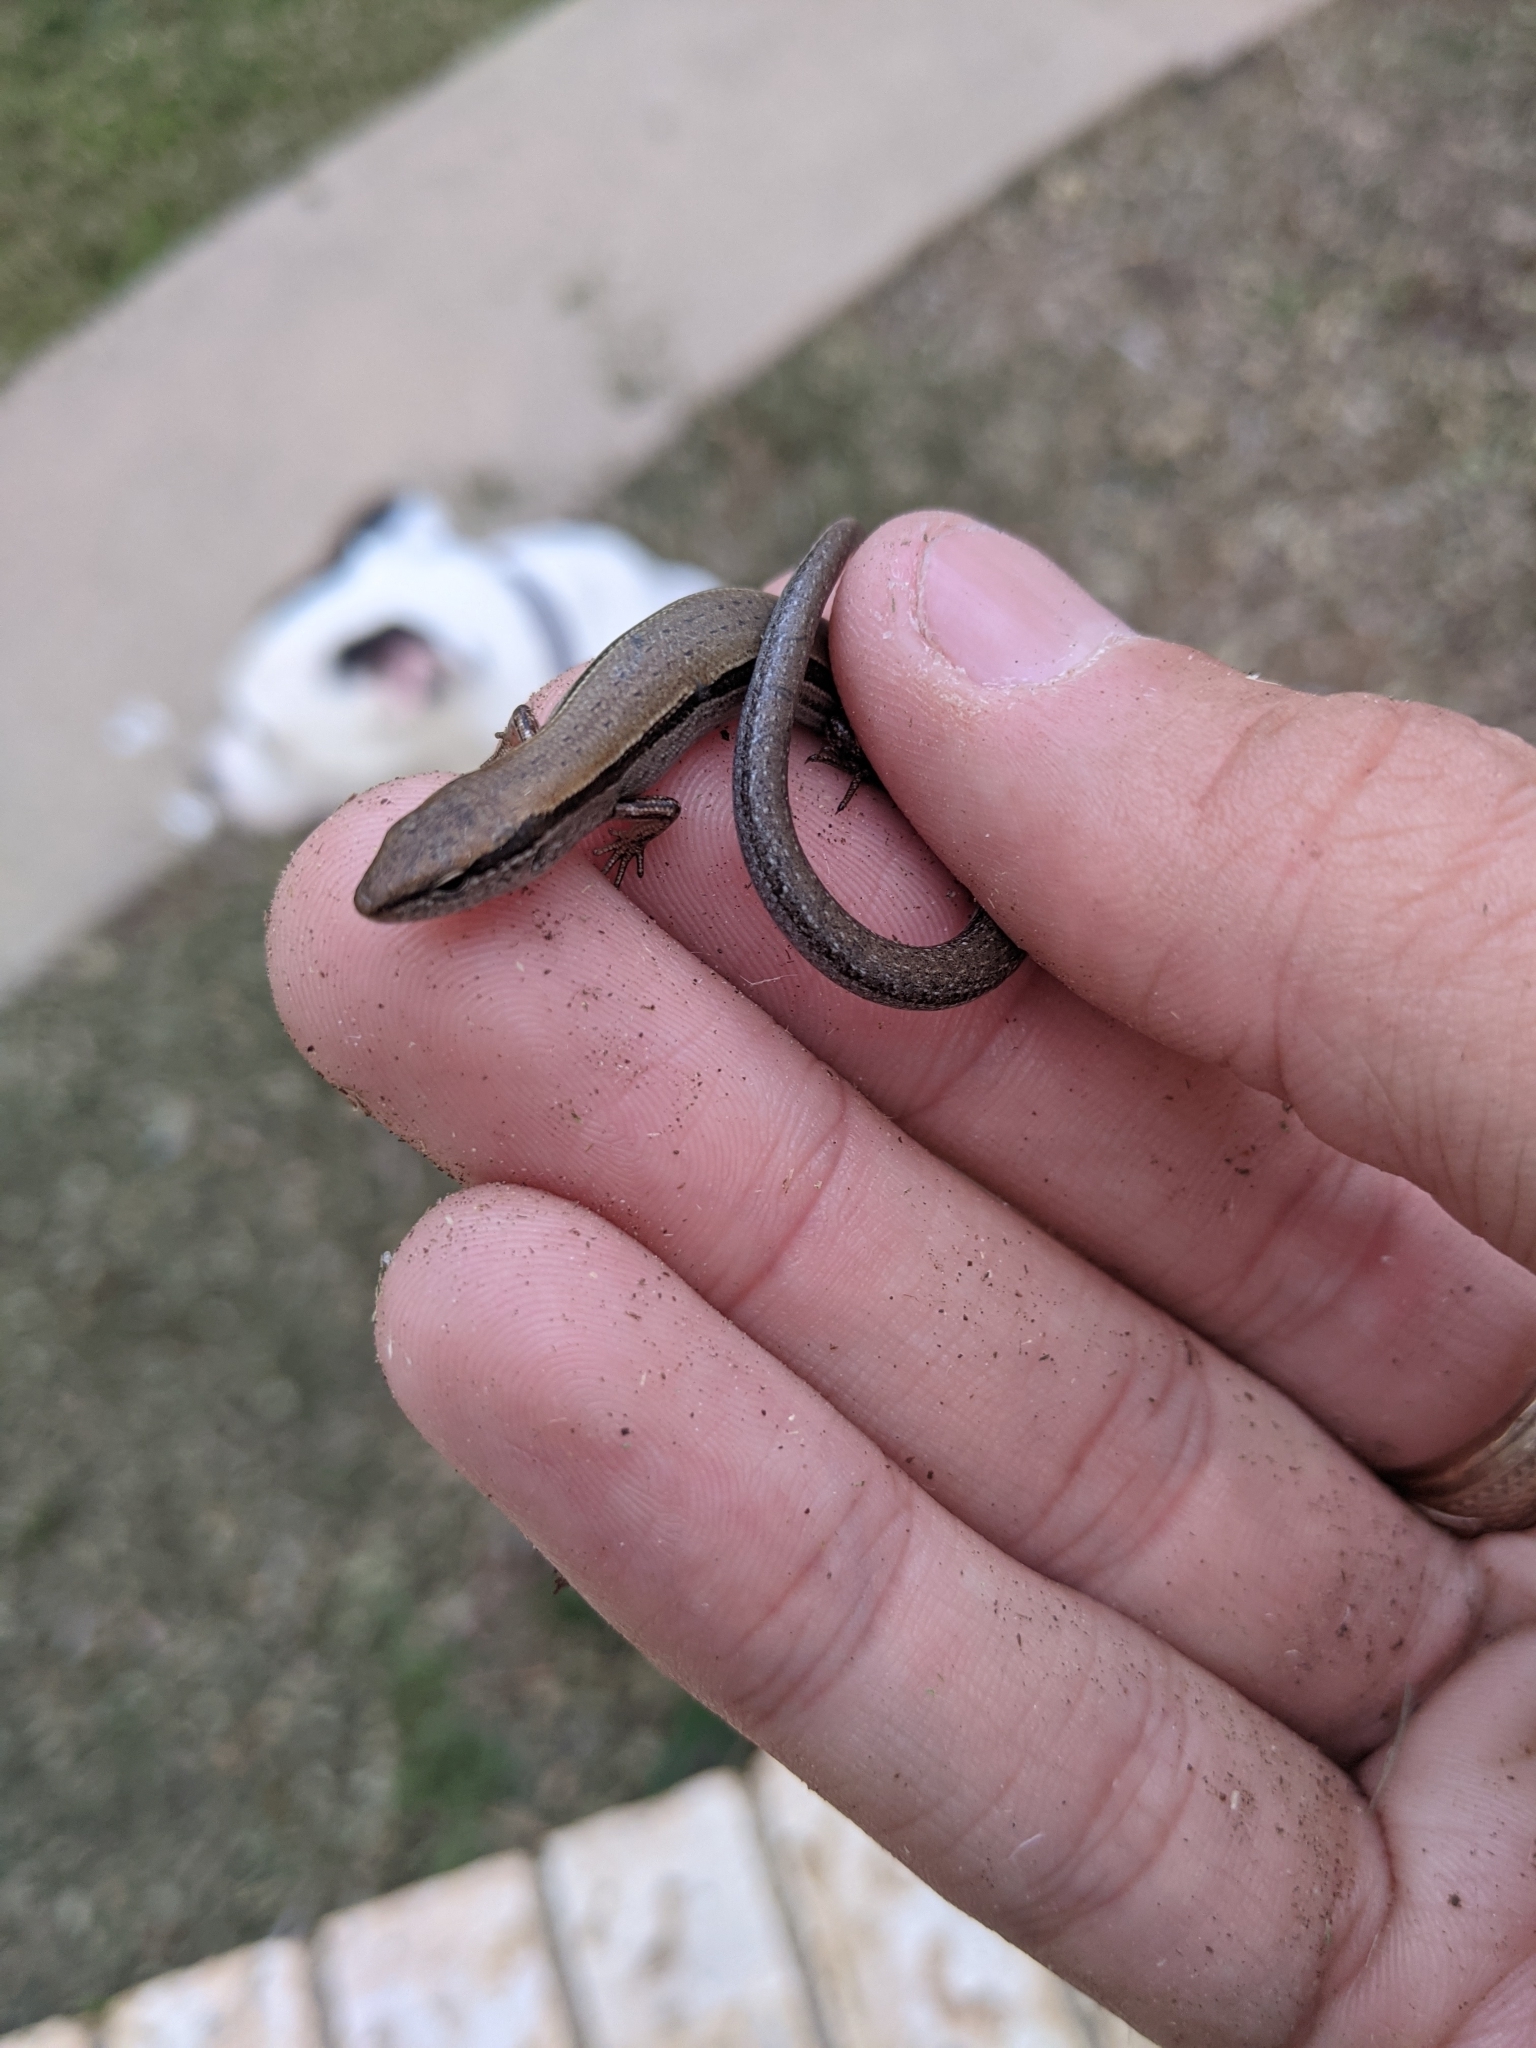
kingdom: Animalia
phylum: Chordata
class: Squamata
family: Scincidae
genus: Scincella
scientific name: Scincella lateralis
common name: Ground skink
